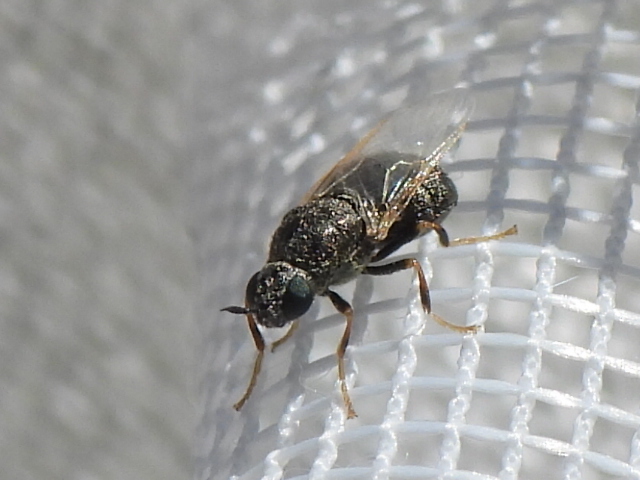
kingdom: Animalia
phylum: Arthropoda
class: Insecta
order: Diptera
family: Stratiomyidae
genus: Nemotelus
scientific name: Nemotelus bruesii
